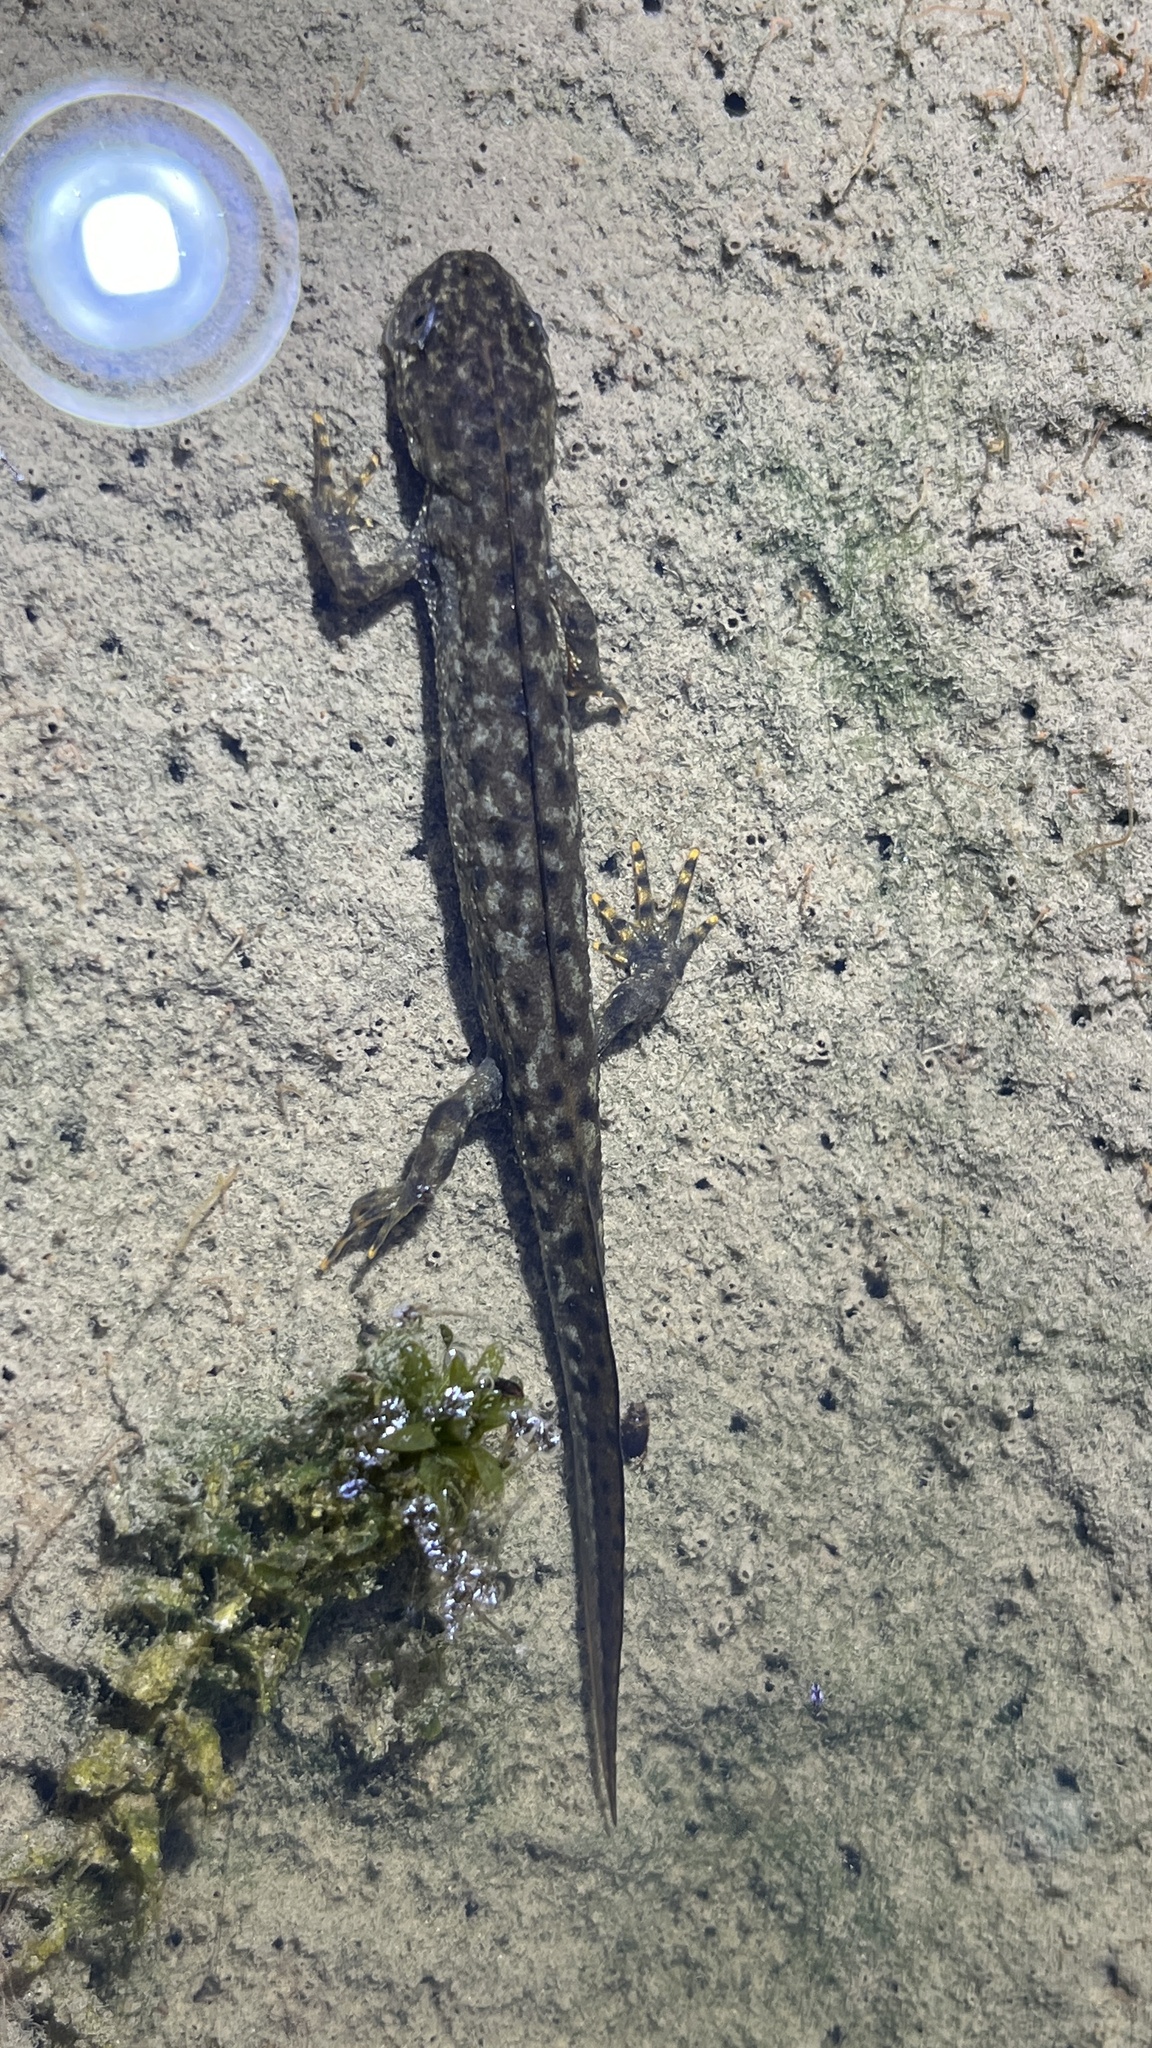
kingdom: Animalia
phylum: Chordata
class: Amphibia
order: Caudata
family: Salamandridae
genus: Triturus
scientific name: Triturus cristatus
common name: Crested newt
